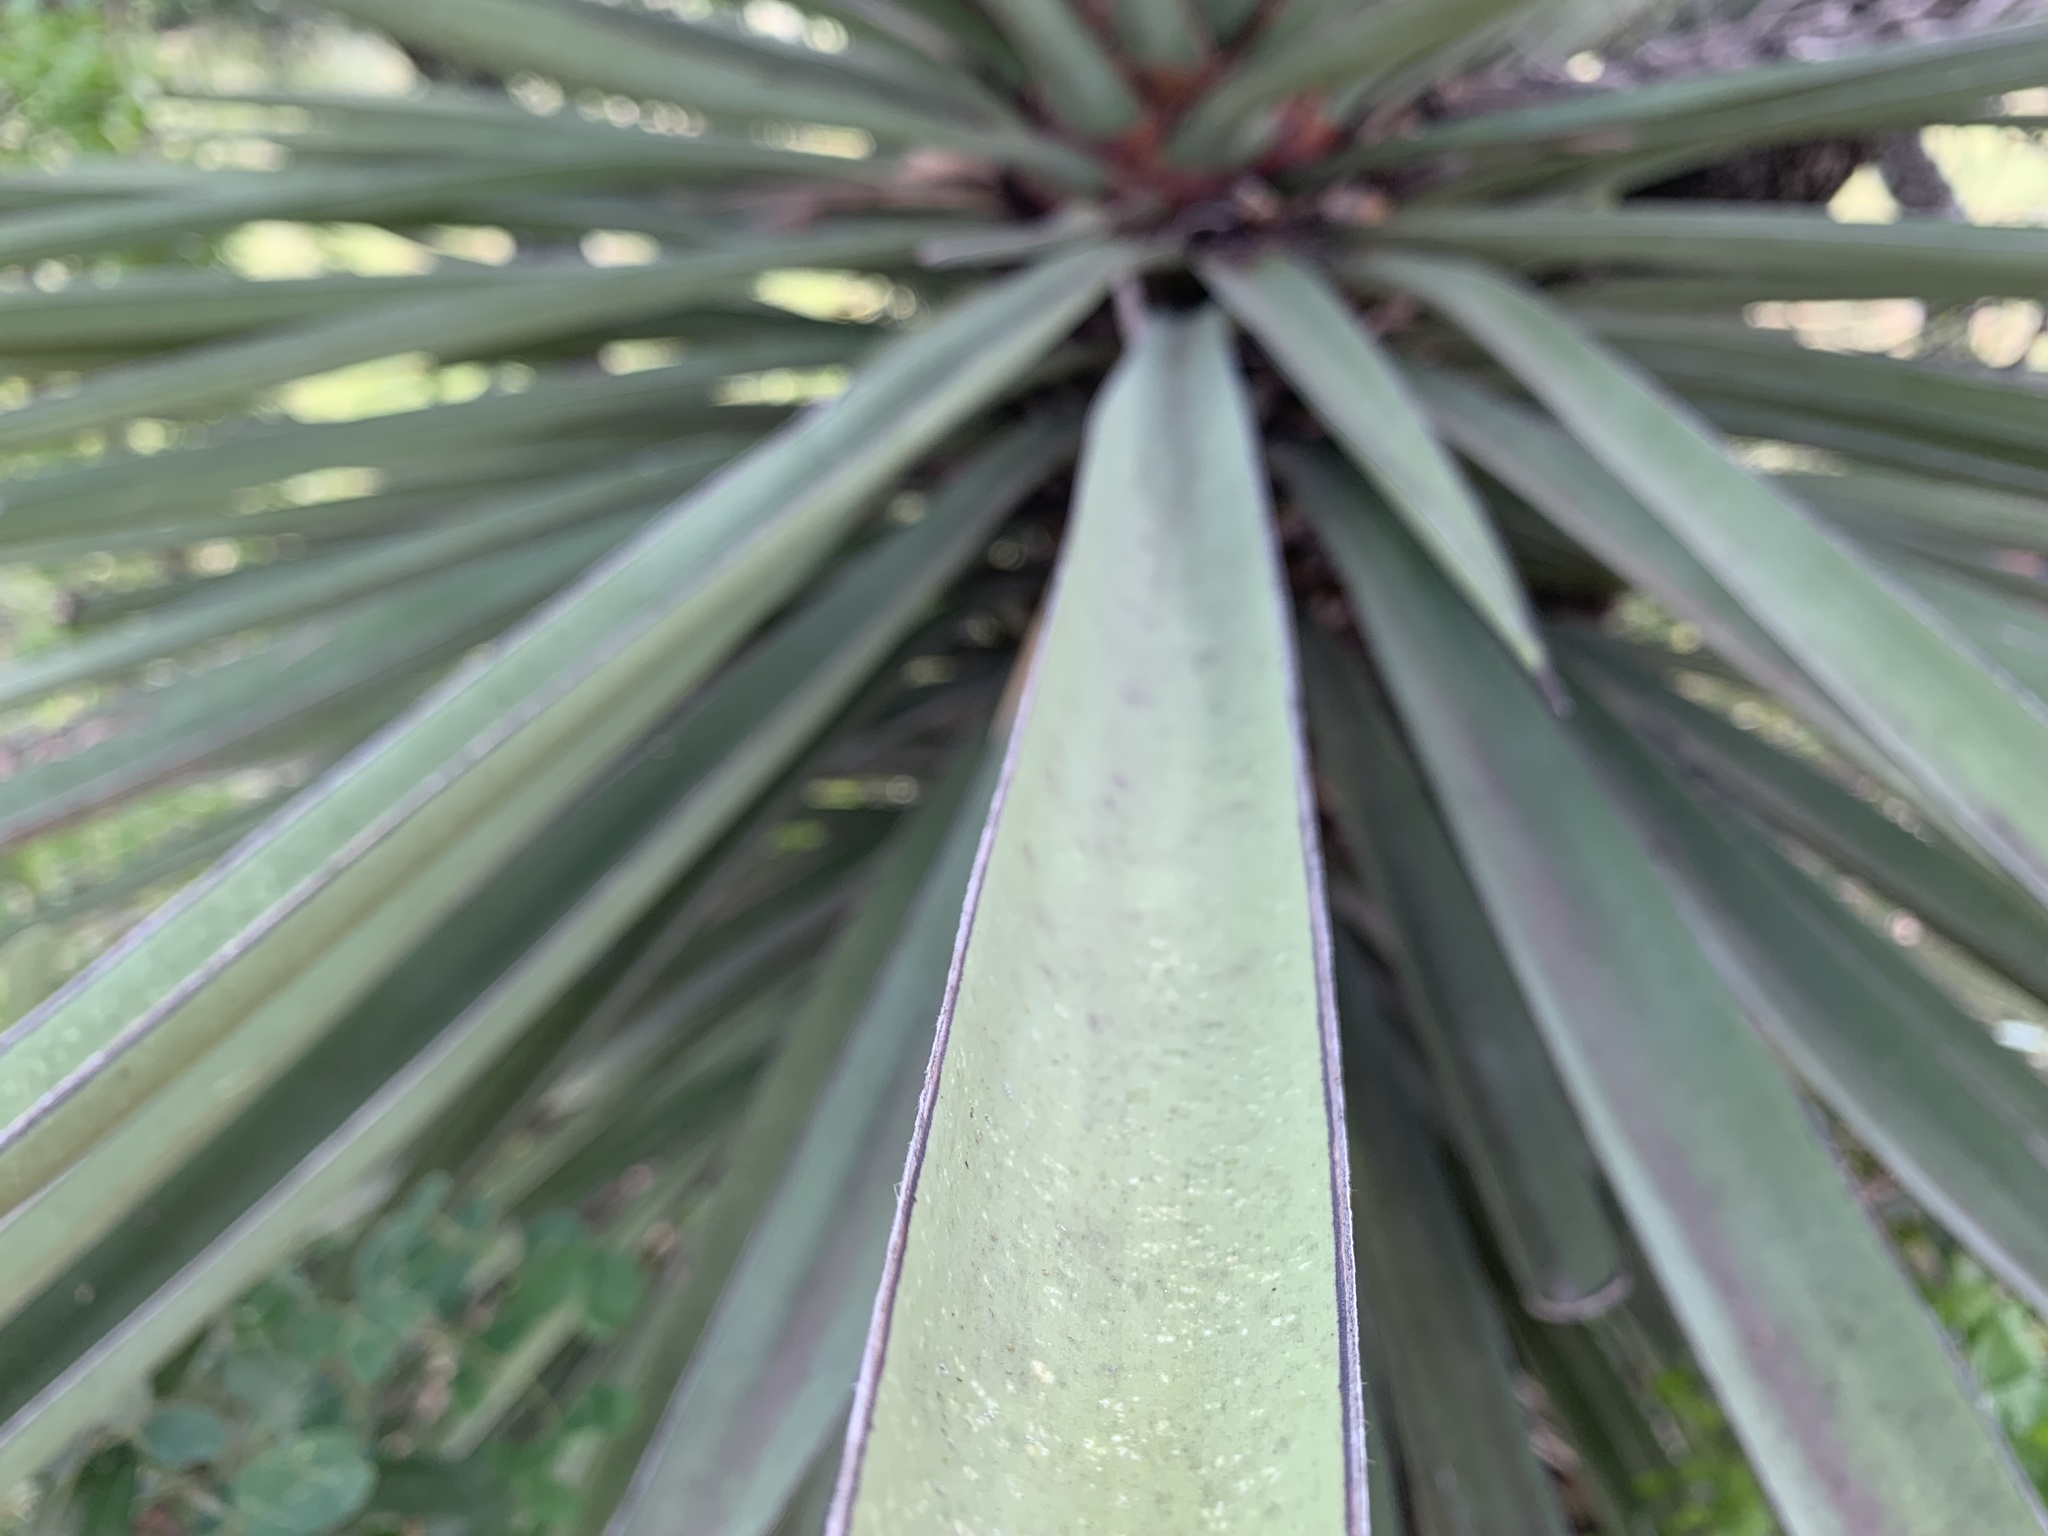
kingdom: Plantae
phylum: Tracheophyta
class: Liliopsida
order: Asparagales
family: Asparagaceae
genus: Yucca
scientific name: Yucca treculiana
